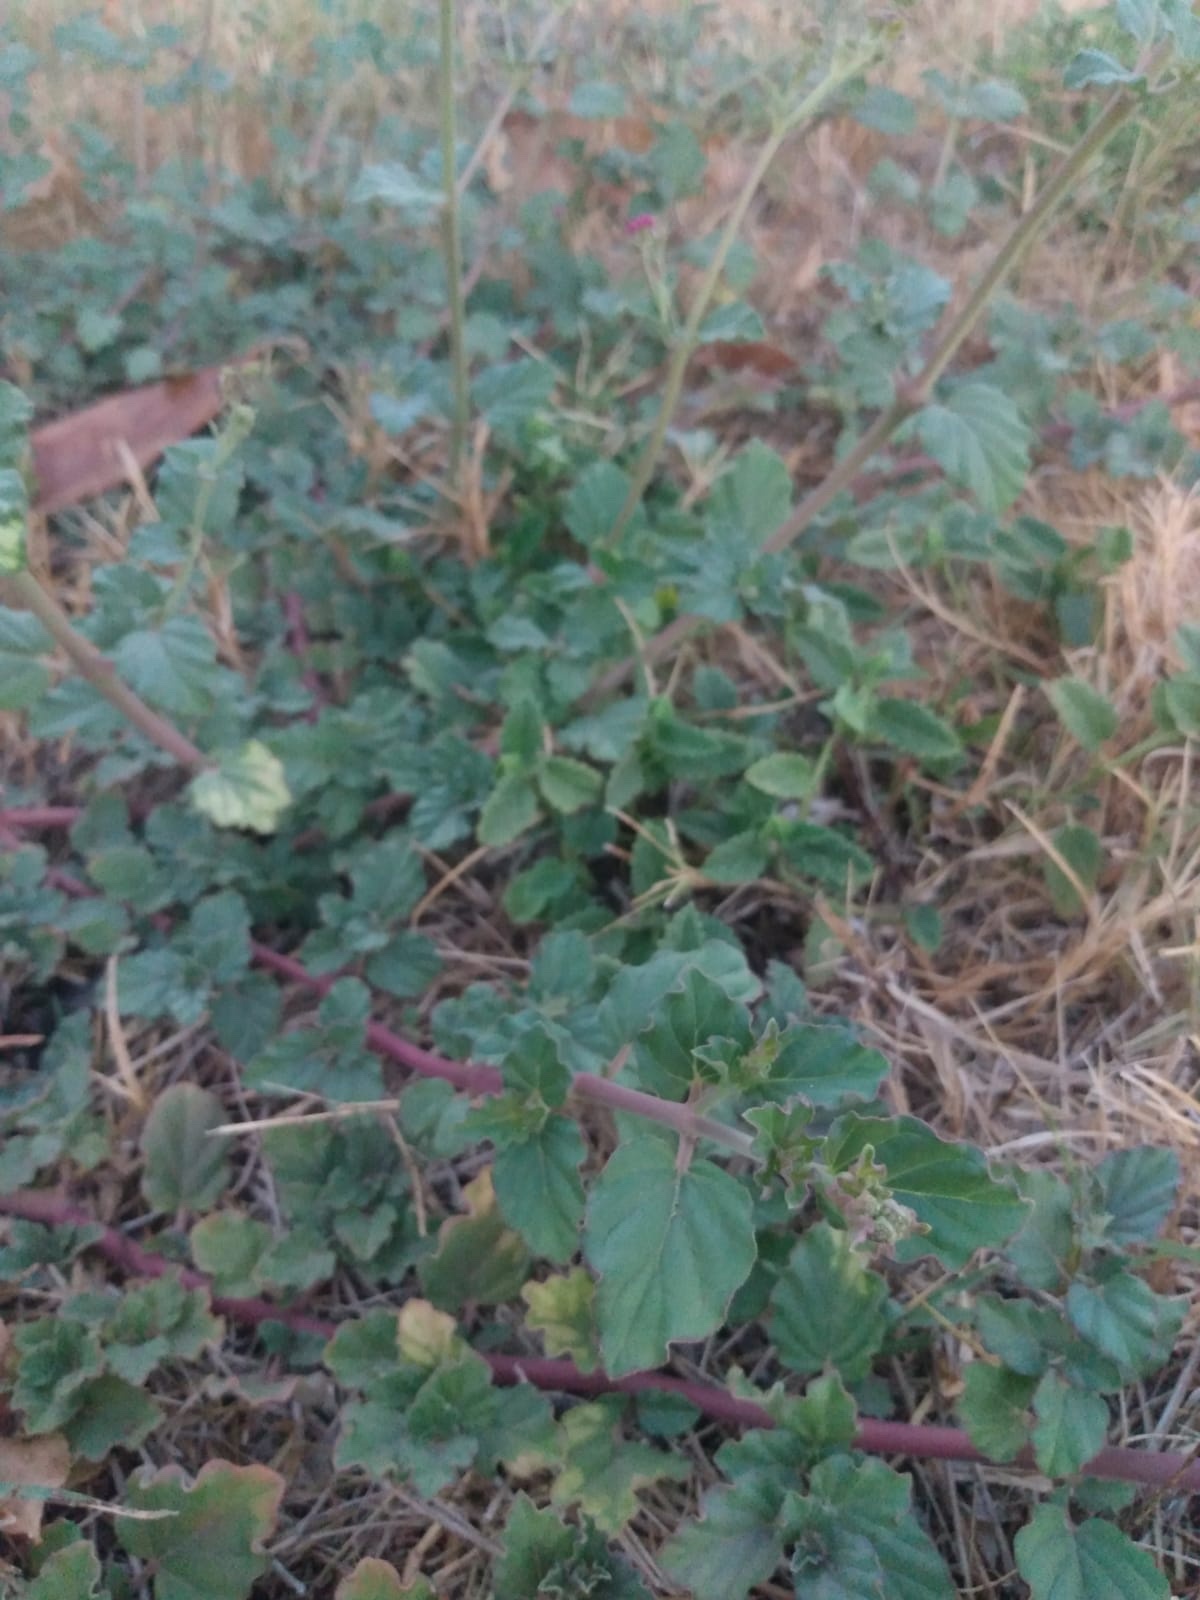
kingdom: Plantae
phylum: Tracheophyta
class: Magnoliopsida
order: Caryophyllales
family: Nyctaginaceae
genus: Boerhavia
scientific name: Boerhavia coccinea
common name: Scarlet spiderling
